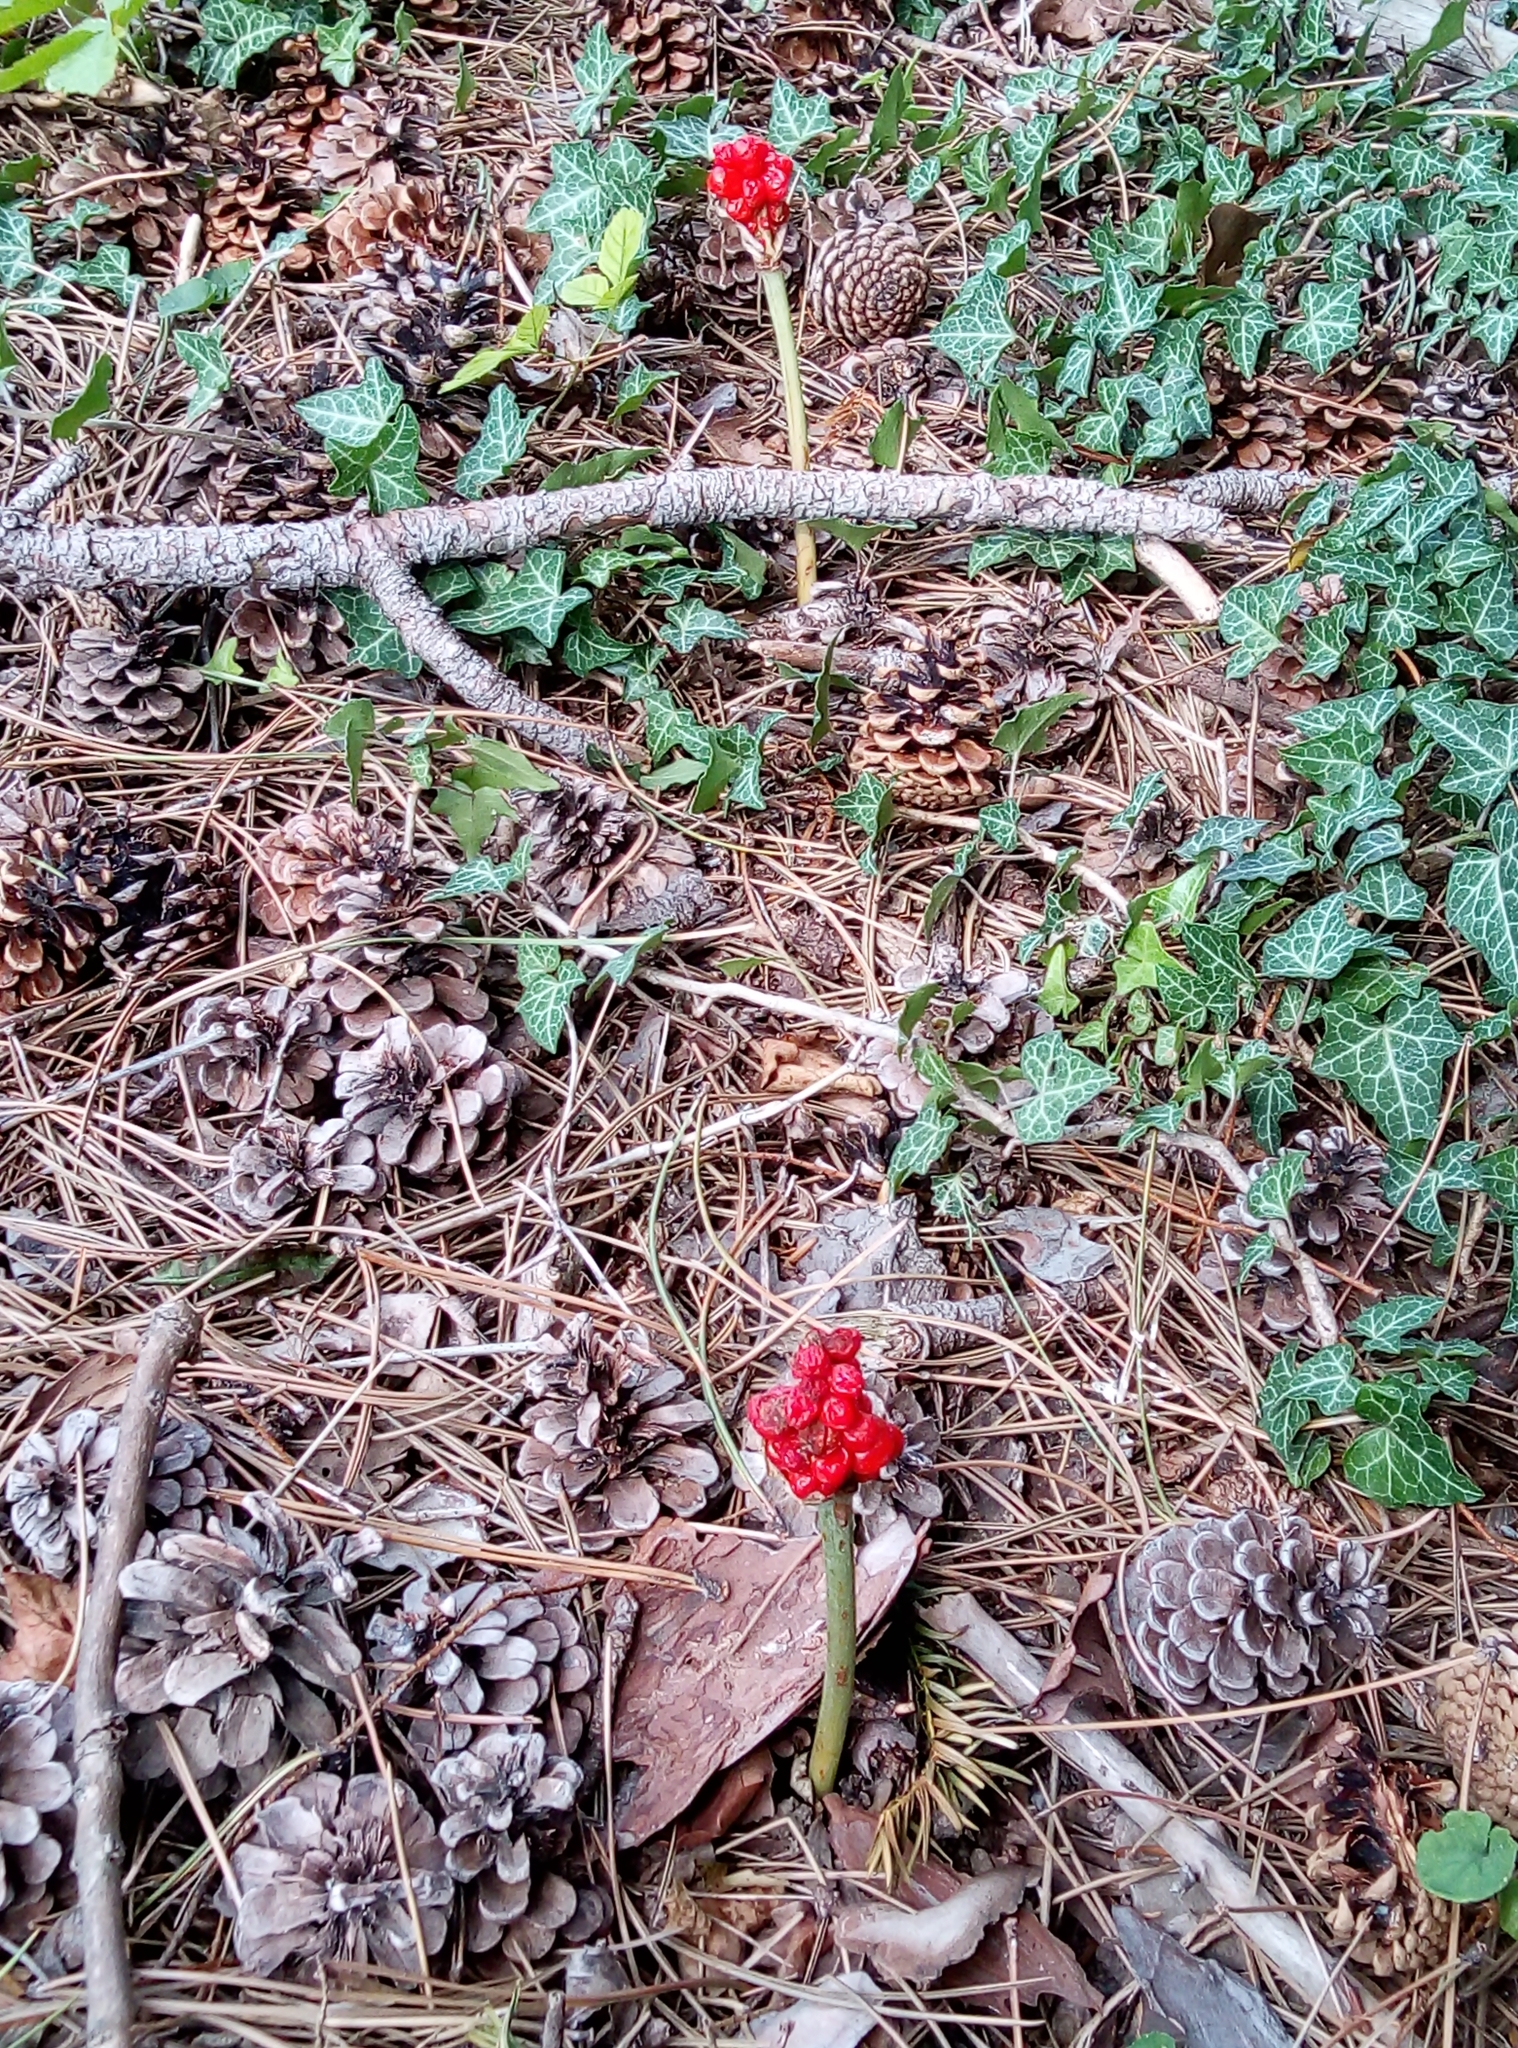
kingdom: Plantae
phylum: Tracheophyta
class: Liliopsida
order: Alismatales
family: Araceae
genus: Arum
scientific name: Arum cylindraceum
